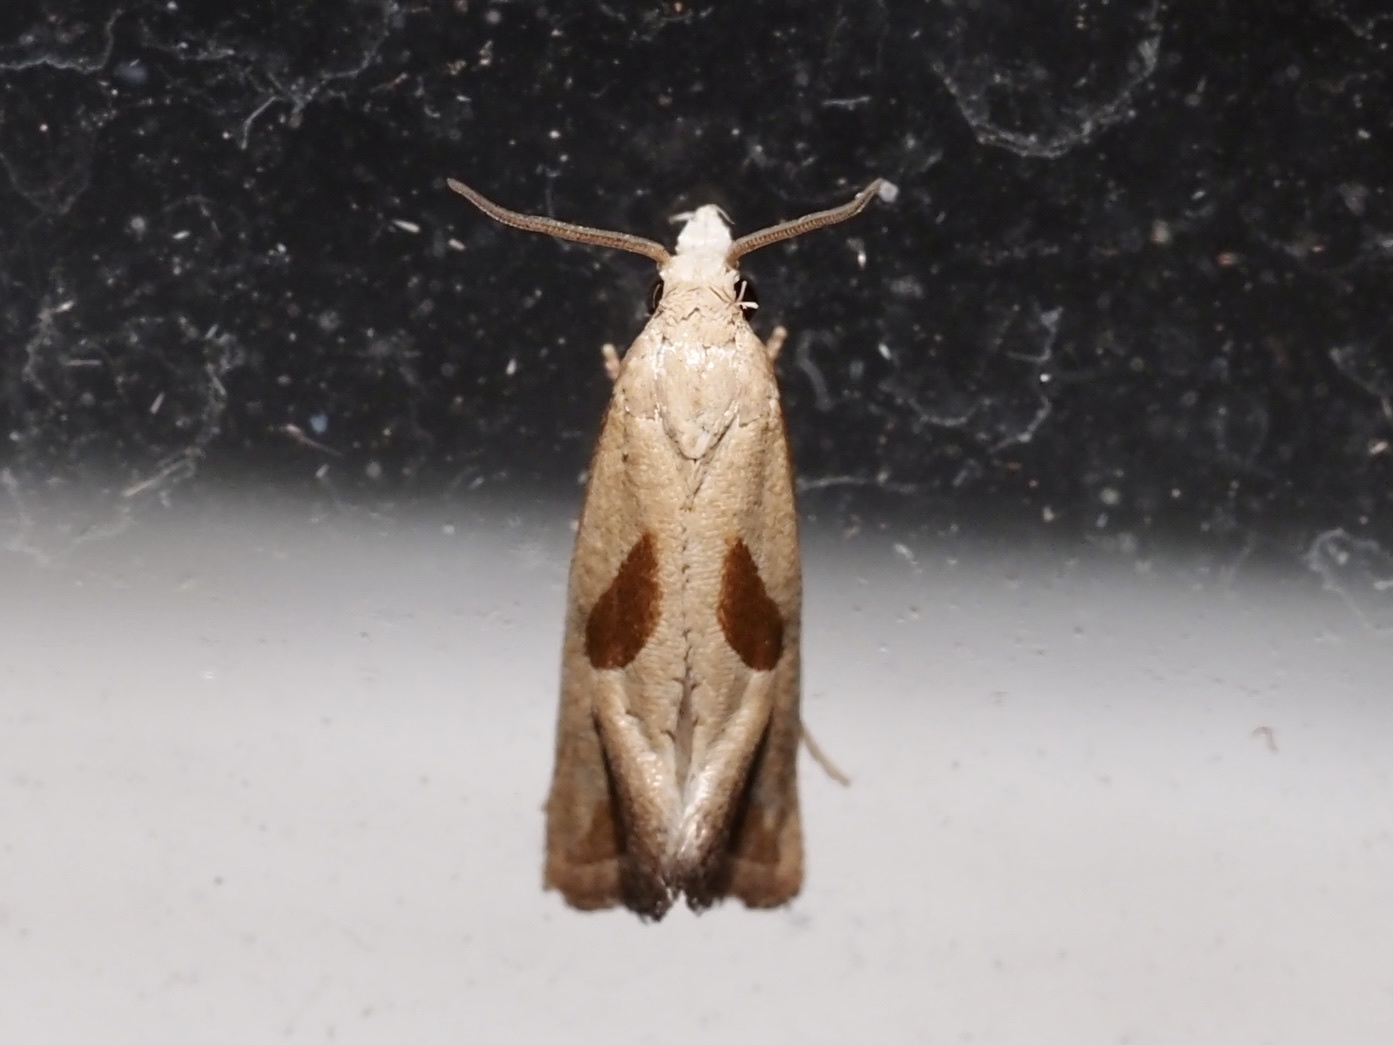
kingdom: Animalia
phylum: Arthropoda
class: Insecta
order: Lepidoptera
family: Tortricidae
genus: Eugnosta
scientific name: Eugnosta bimaculana
